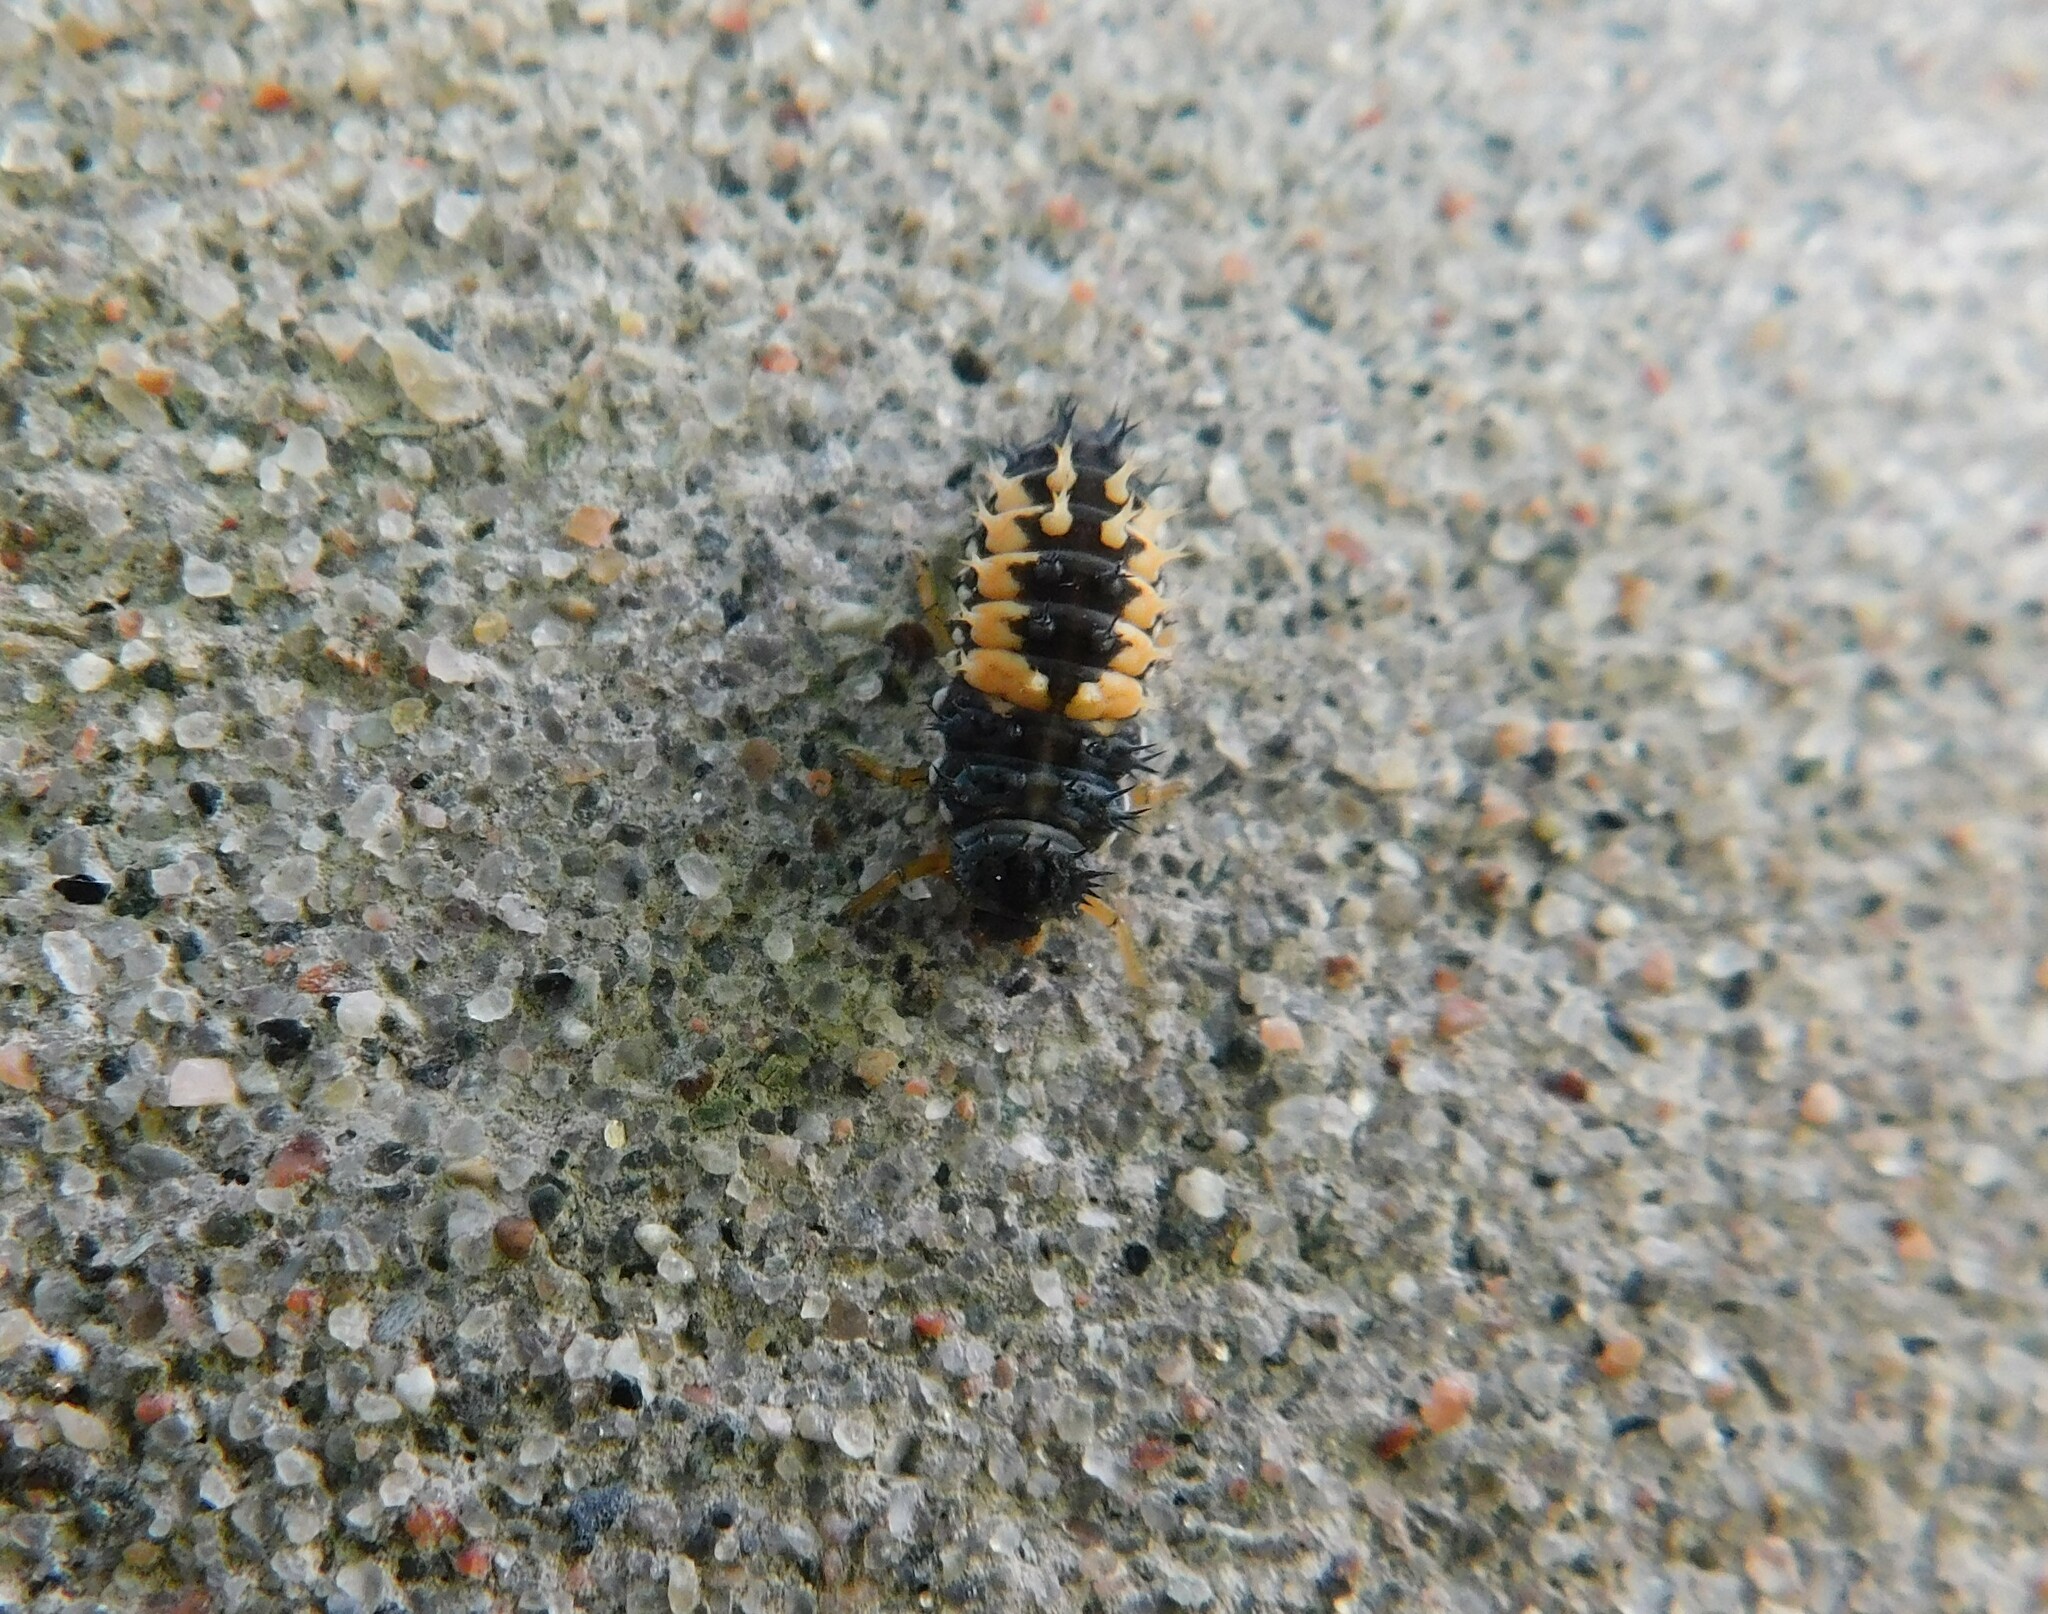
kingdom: Animalia
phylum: Arthropoda
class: Insecta
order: Coleoptera
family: Coccinellidae
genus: Harmonia
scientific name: Harmonia axyridis
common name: Harlequin ladybird
